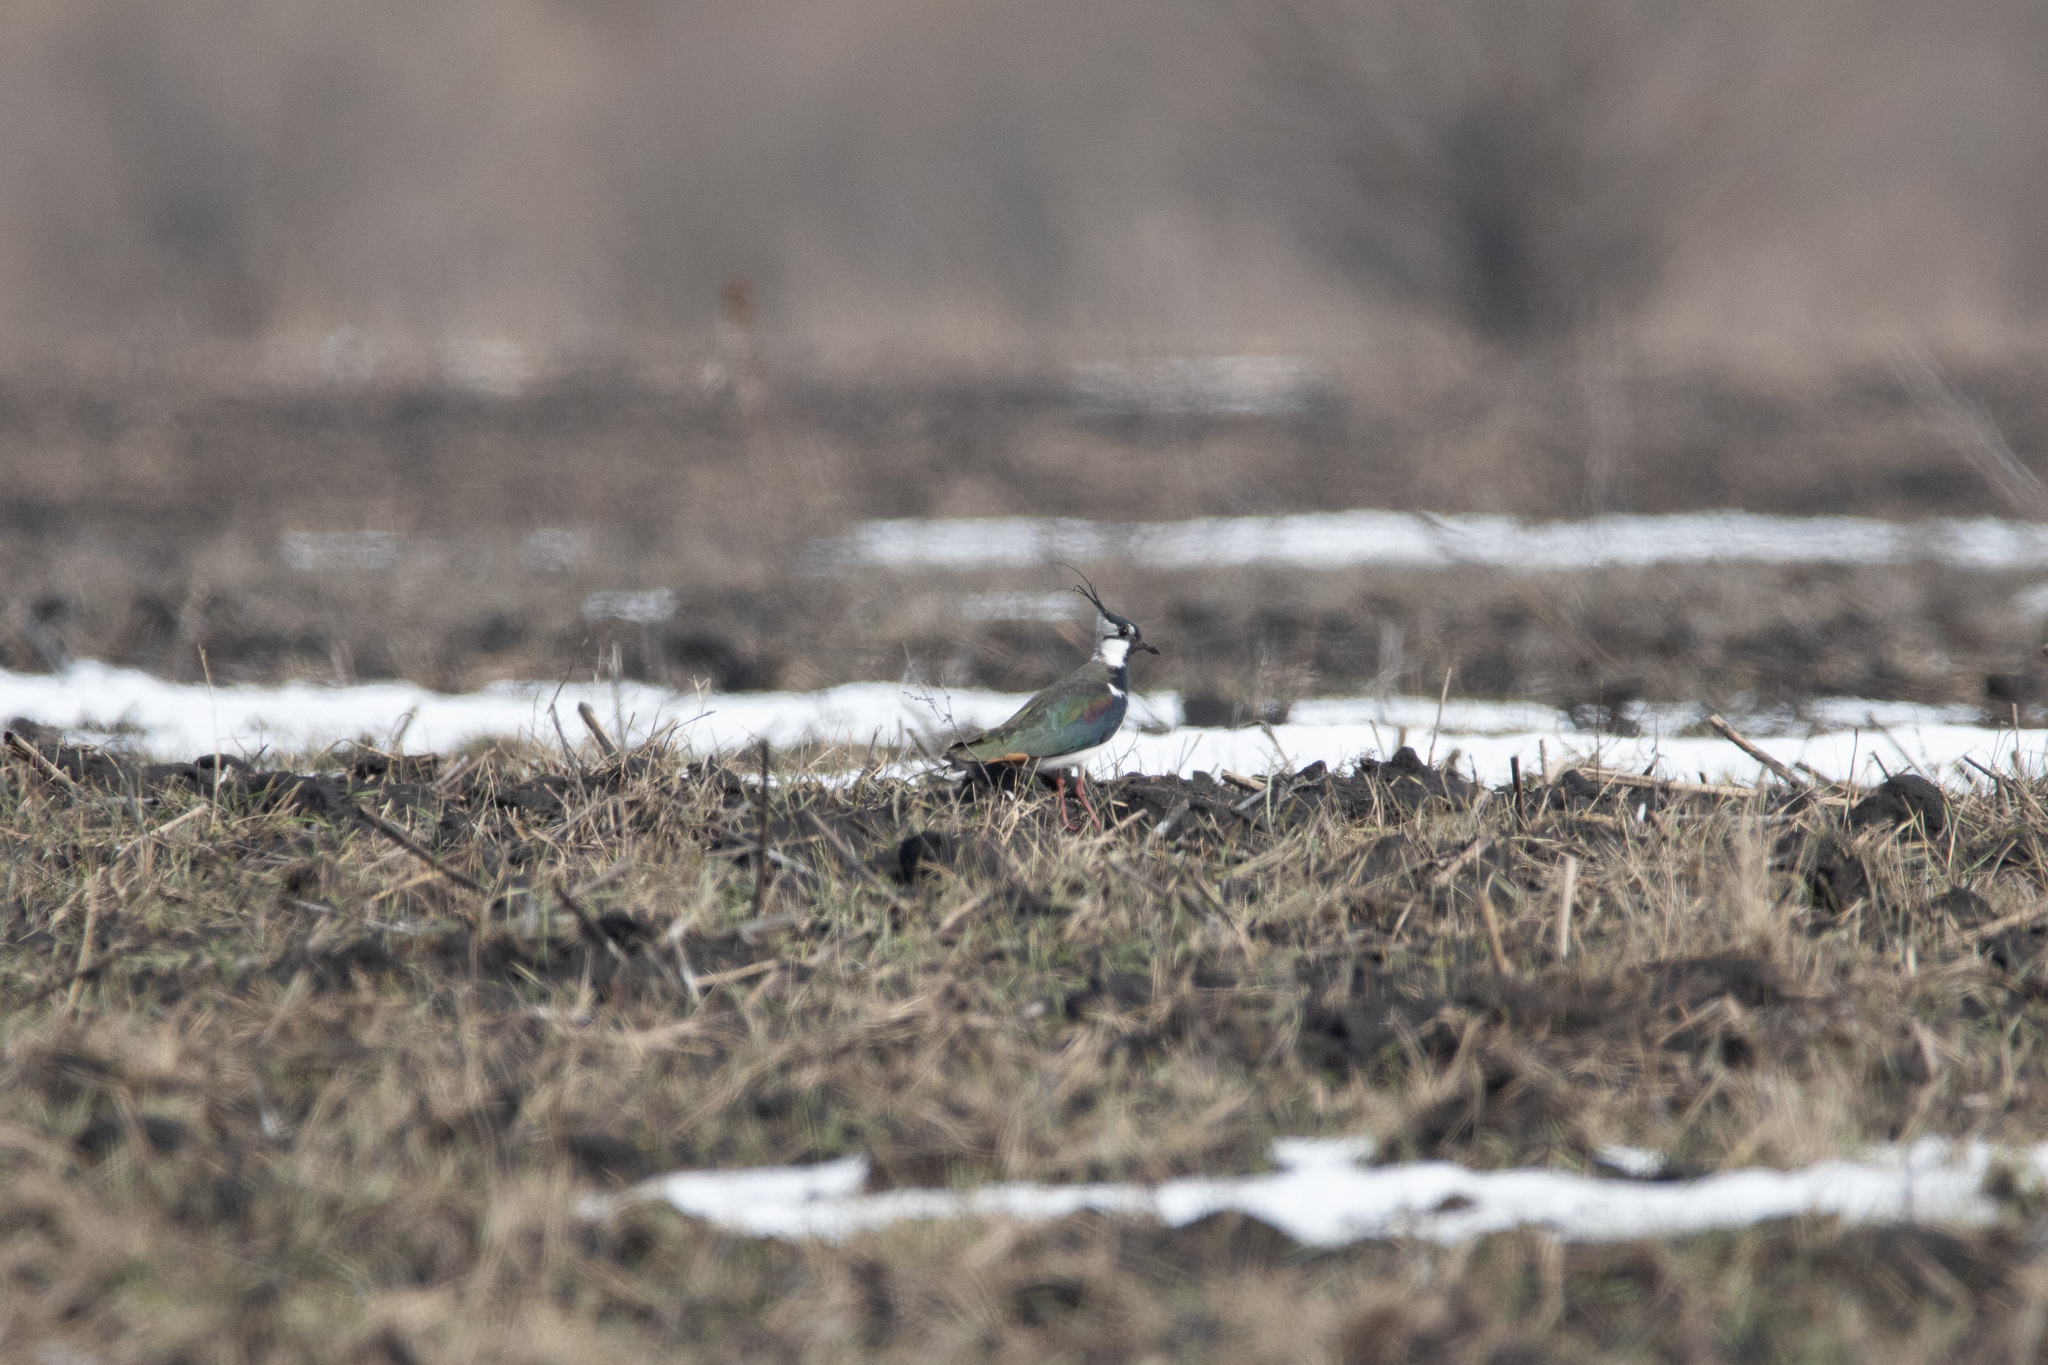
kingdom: Animalia
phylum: Chordata
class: Aves
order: Charadriiformes
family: Charadriidae
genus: Vanellus
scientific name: Vanellus vanellus
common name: Northern lapwing
